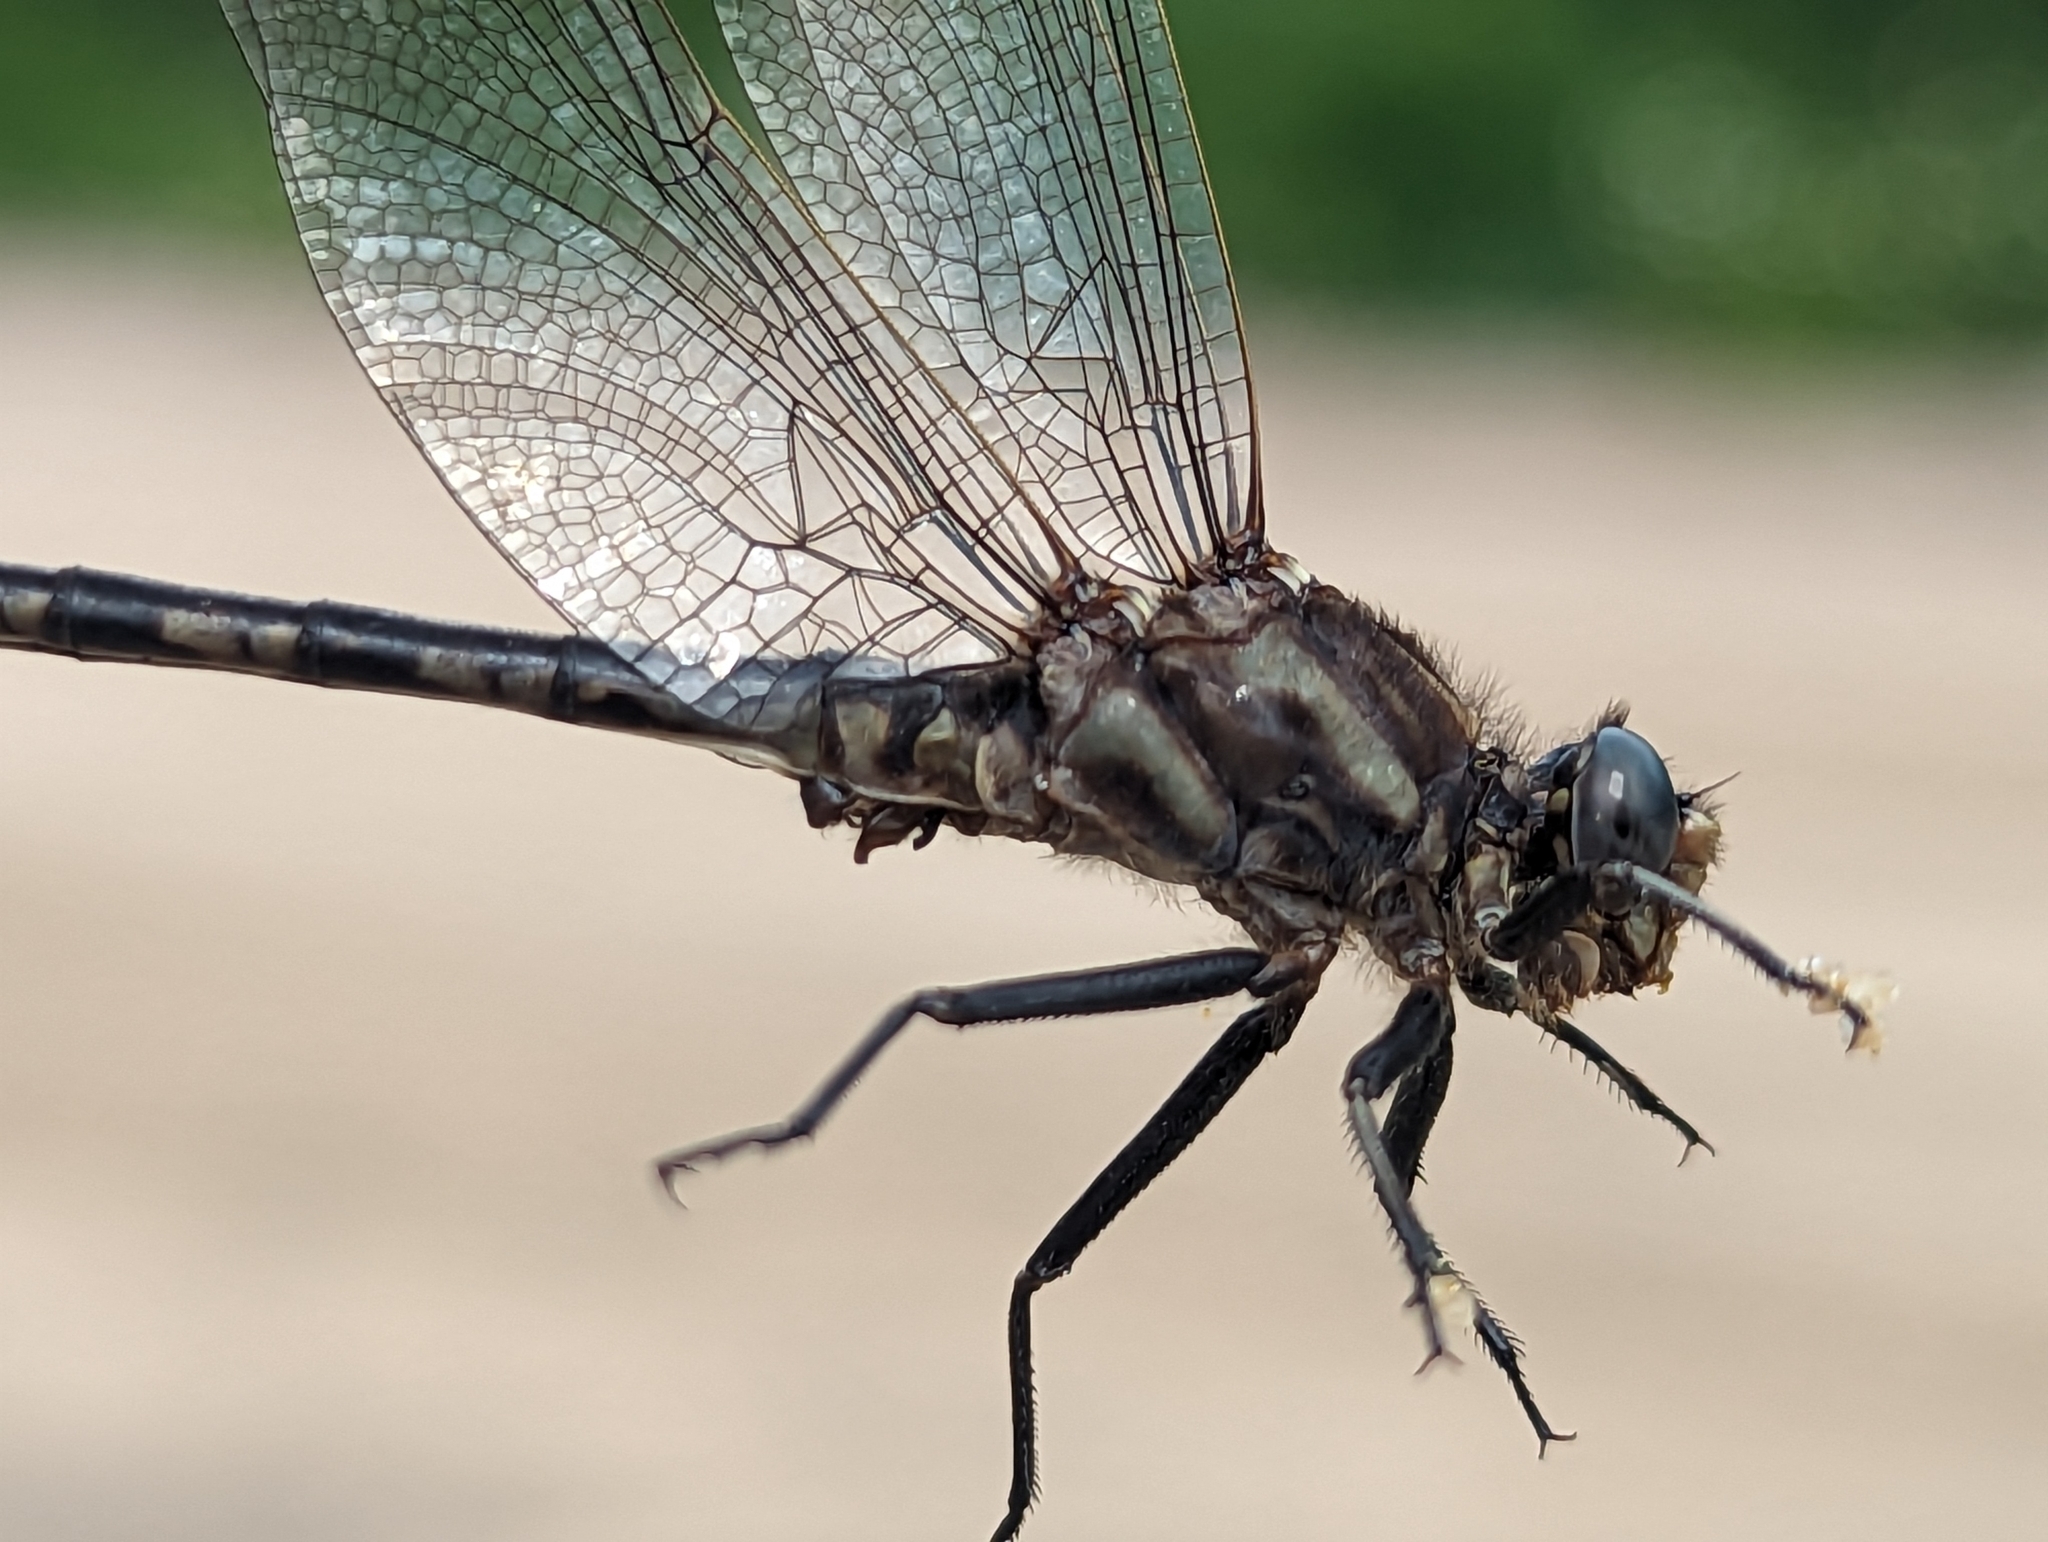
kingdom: Animalia
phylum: Arthropoda
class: Insecta
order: Odonata
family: Gomphidae
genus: Phanogomphus
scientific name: Phanogomphus spicatus
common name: Dusky clubtail
